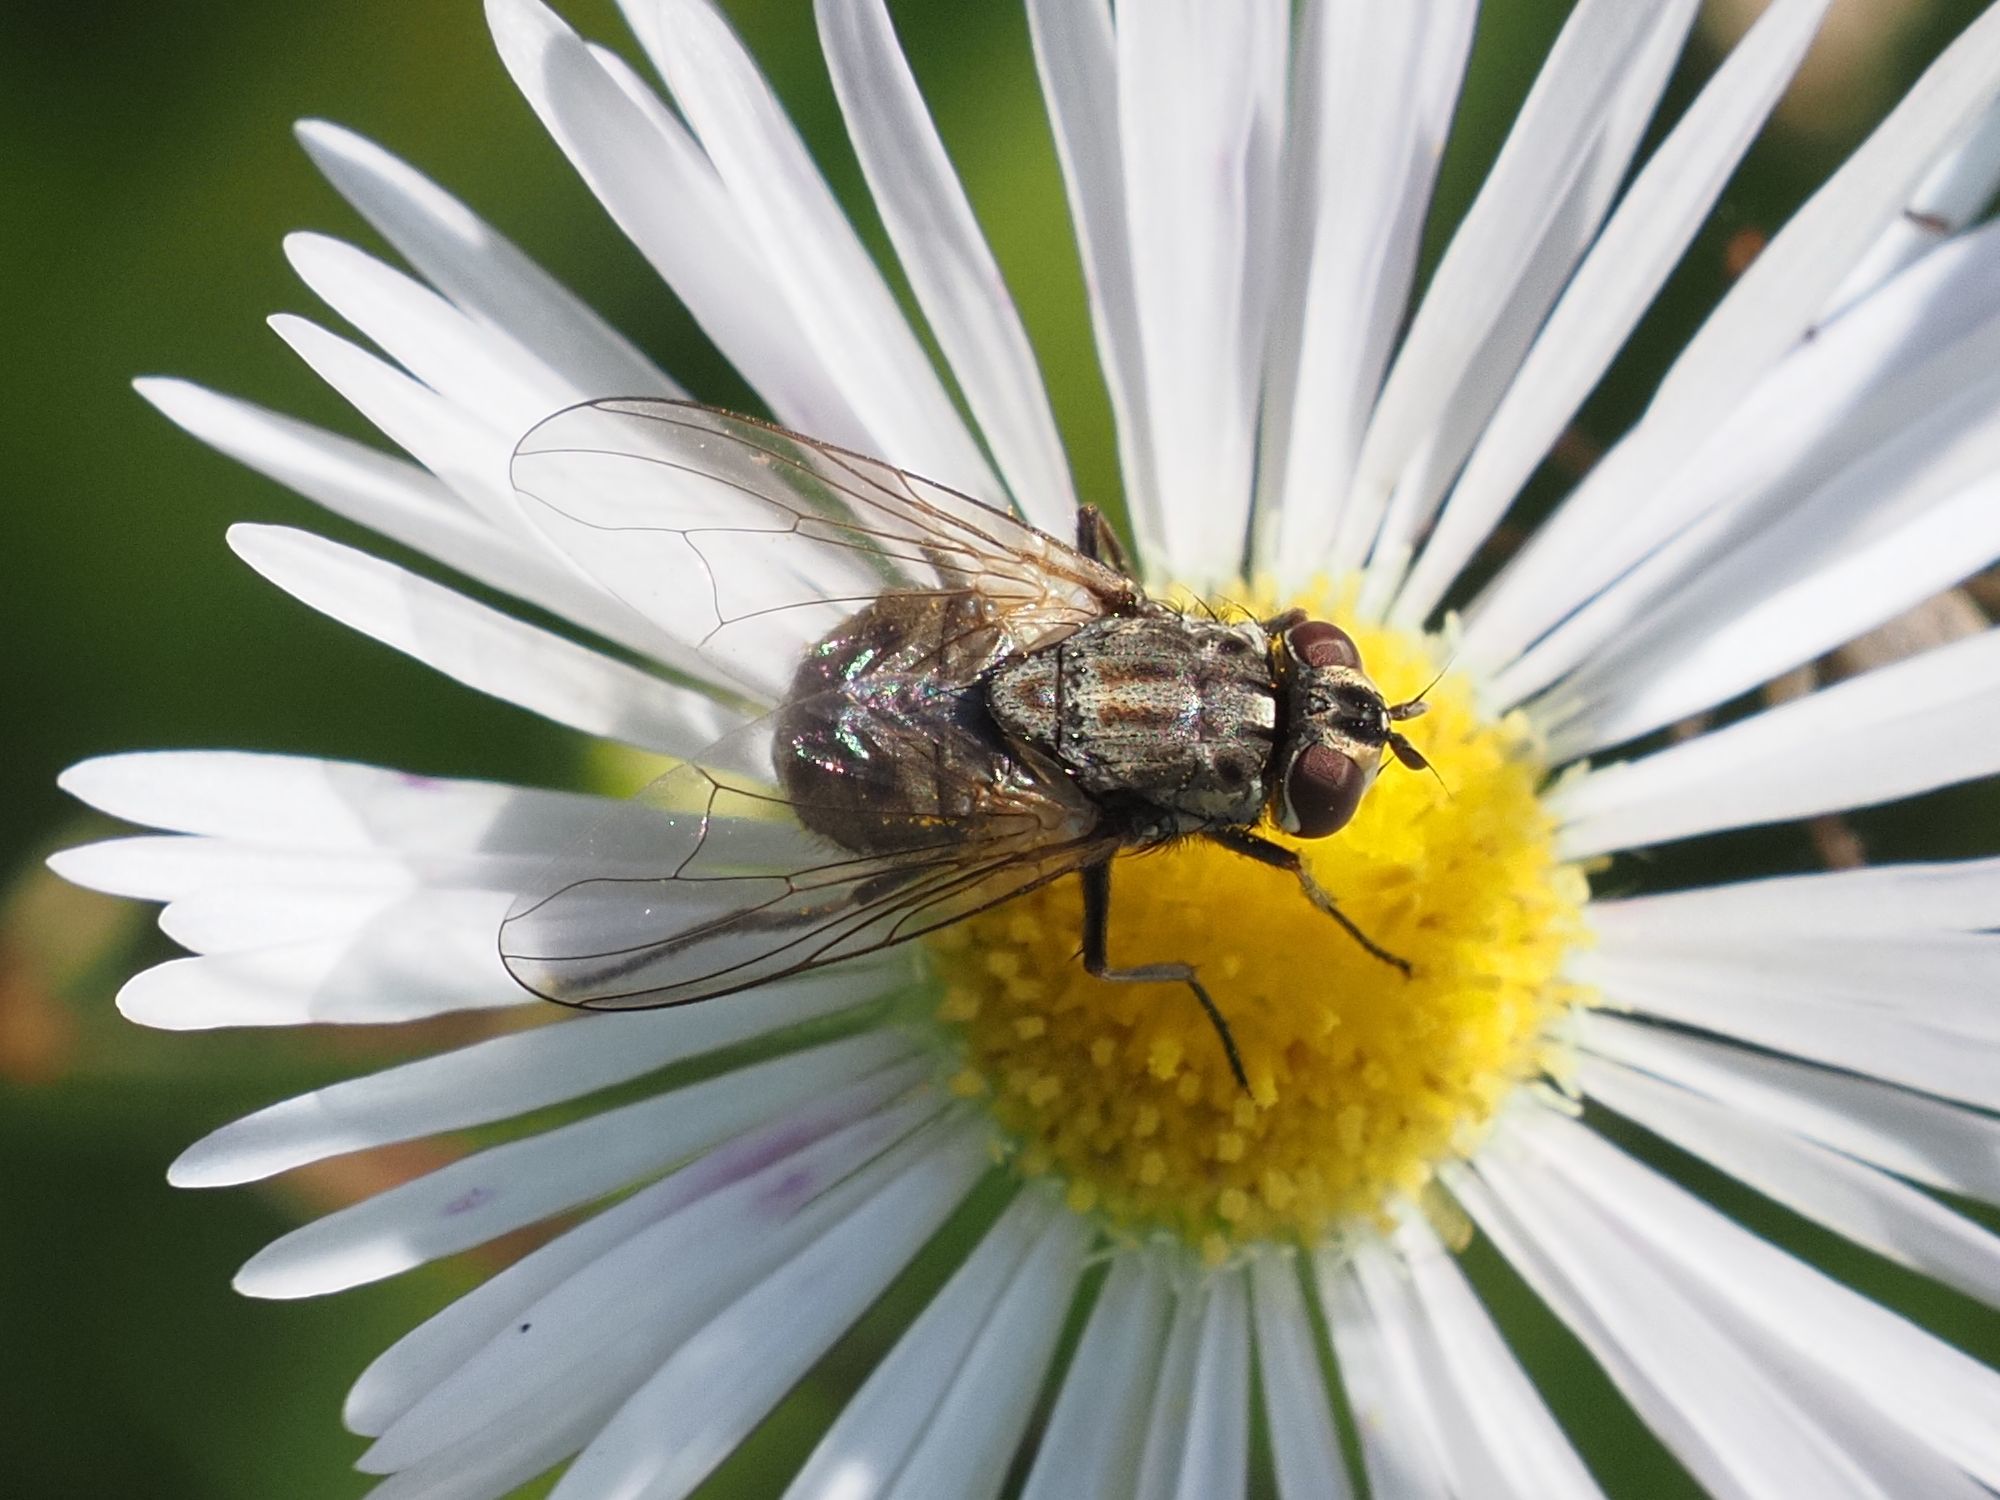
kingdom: Animalia
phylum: Arthropoda
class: Insecta
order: Diptera
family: Muscidae
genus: Stomoxys
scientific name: Stomoxys calcitrans
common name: Stable fly
